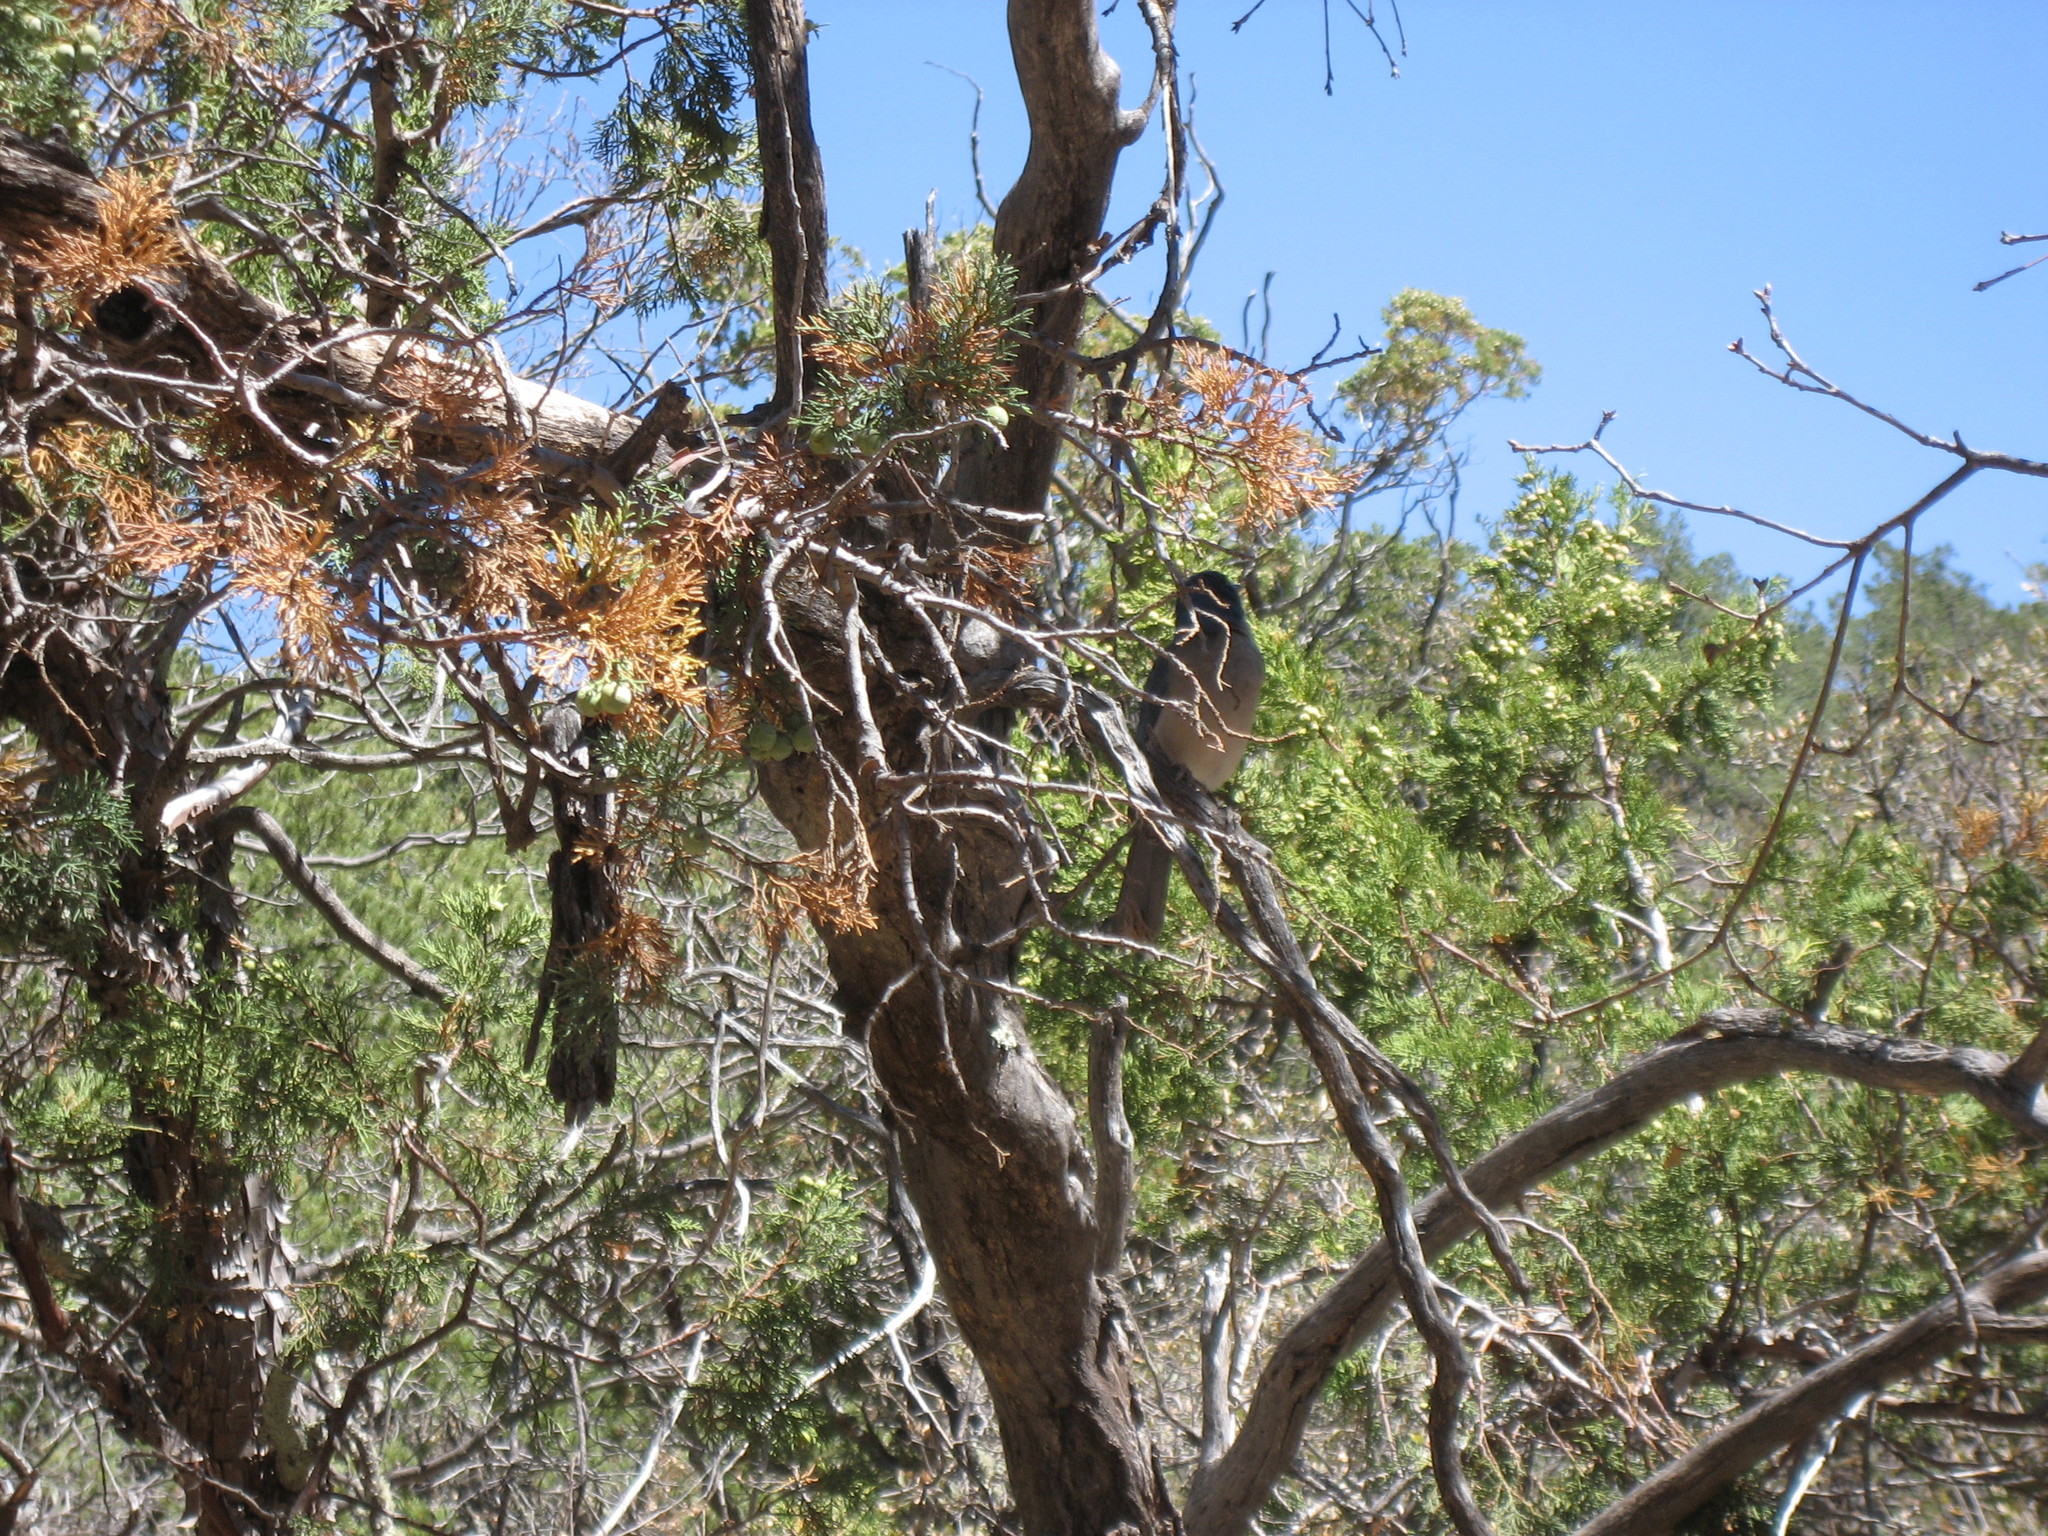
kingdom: Animalia
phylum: Chordata
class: Aves
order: Passeriformes
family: Corvidae
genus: Aphelocoma
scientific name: Aphelocoma wollweberi
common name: Mexican jay
